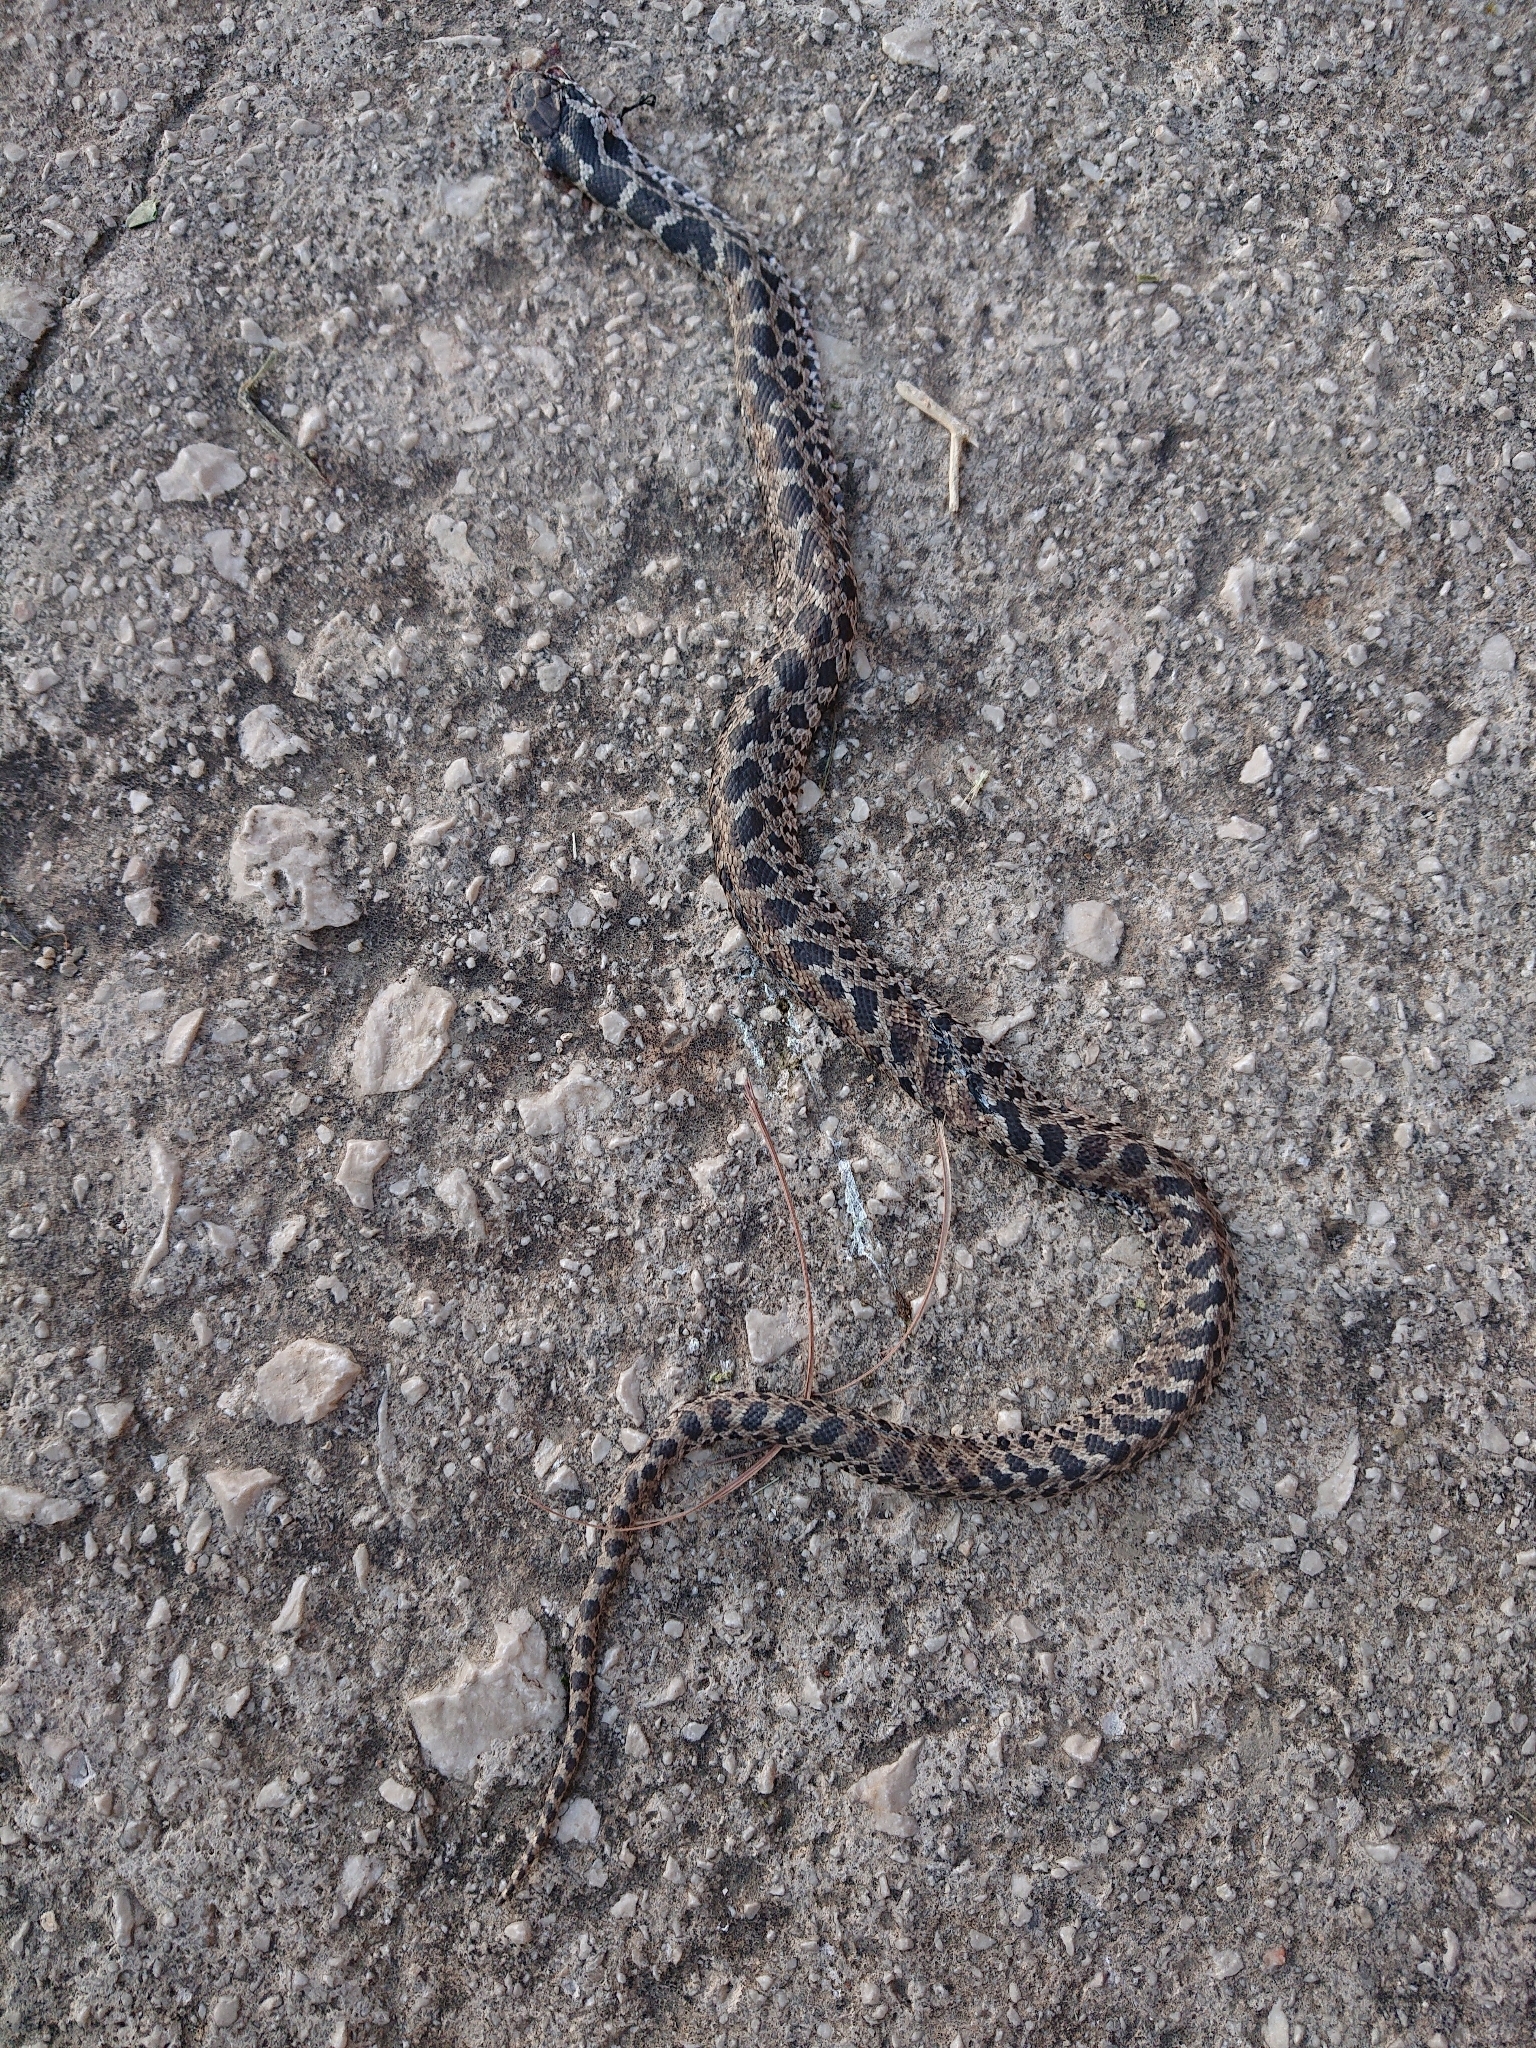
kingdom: Animalia
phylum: Chordata
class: Squamata
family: Colubridae
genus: Elaphe
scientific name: Elaphe quatuorlineata
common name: Four-lined snake
